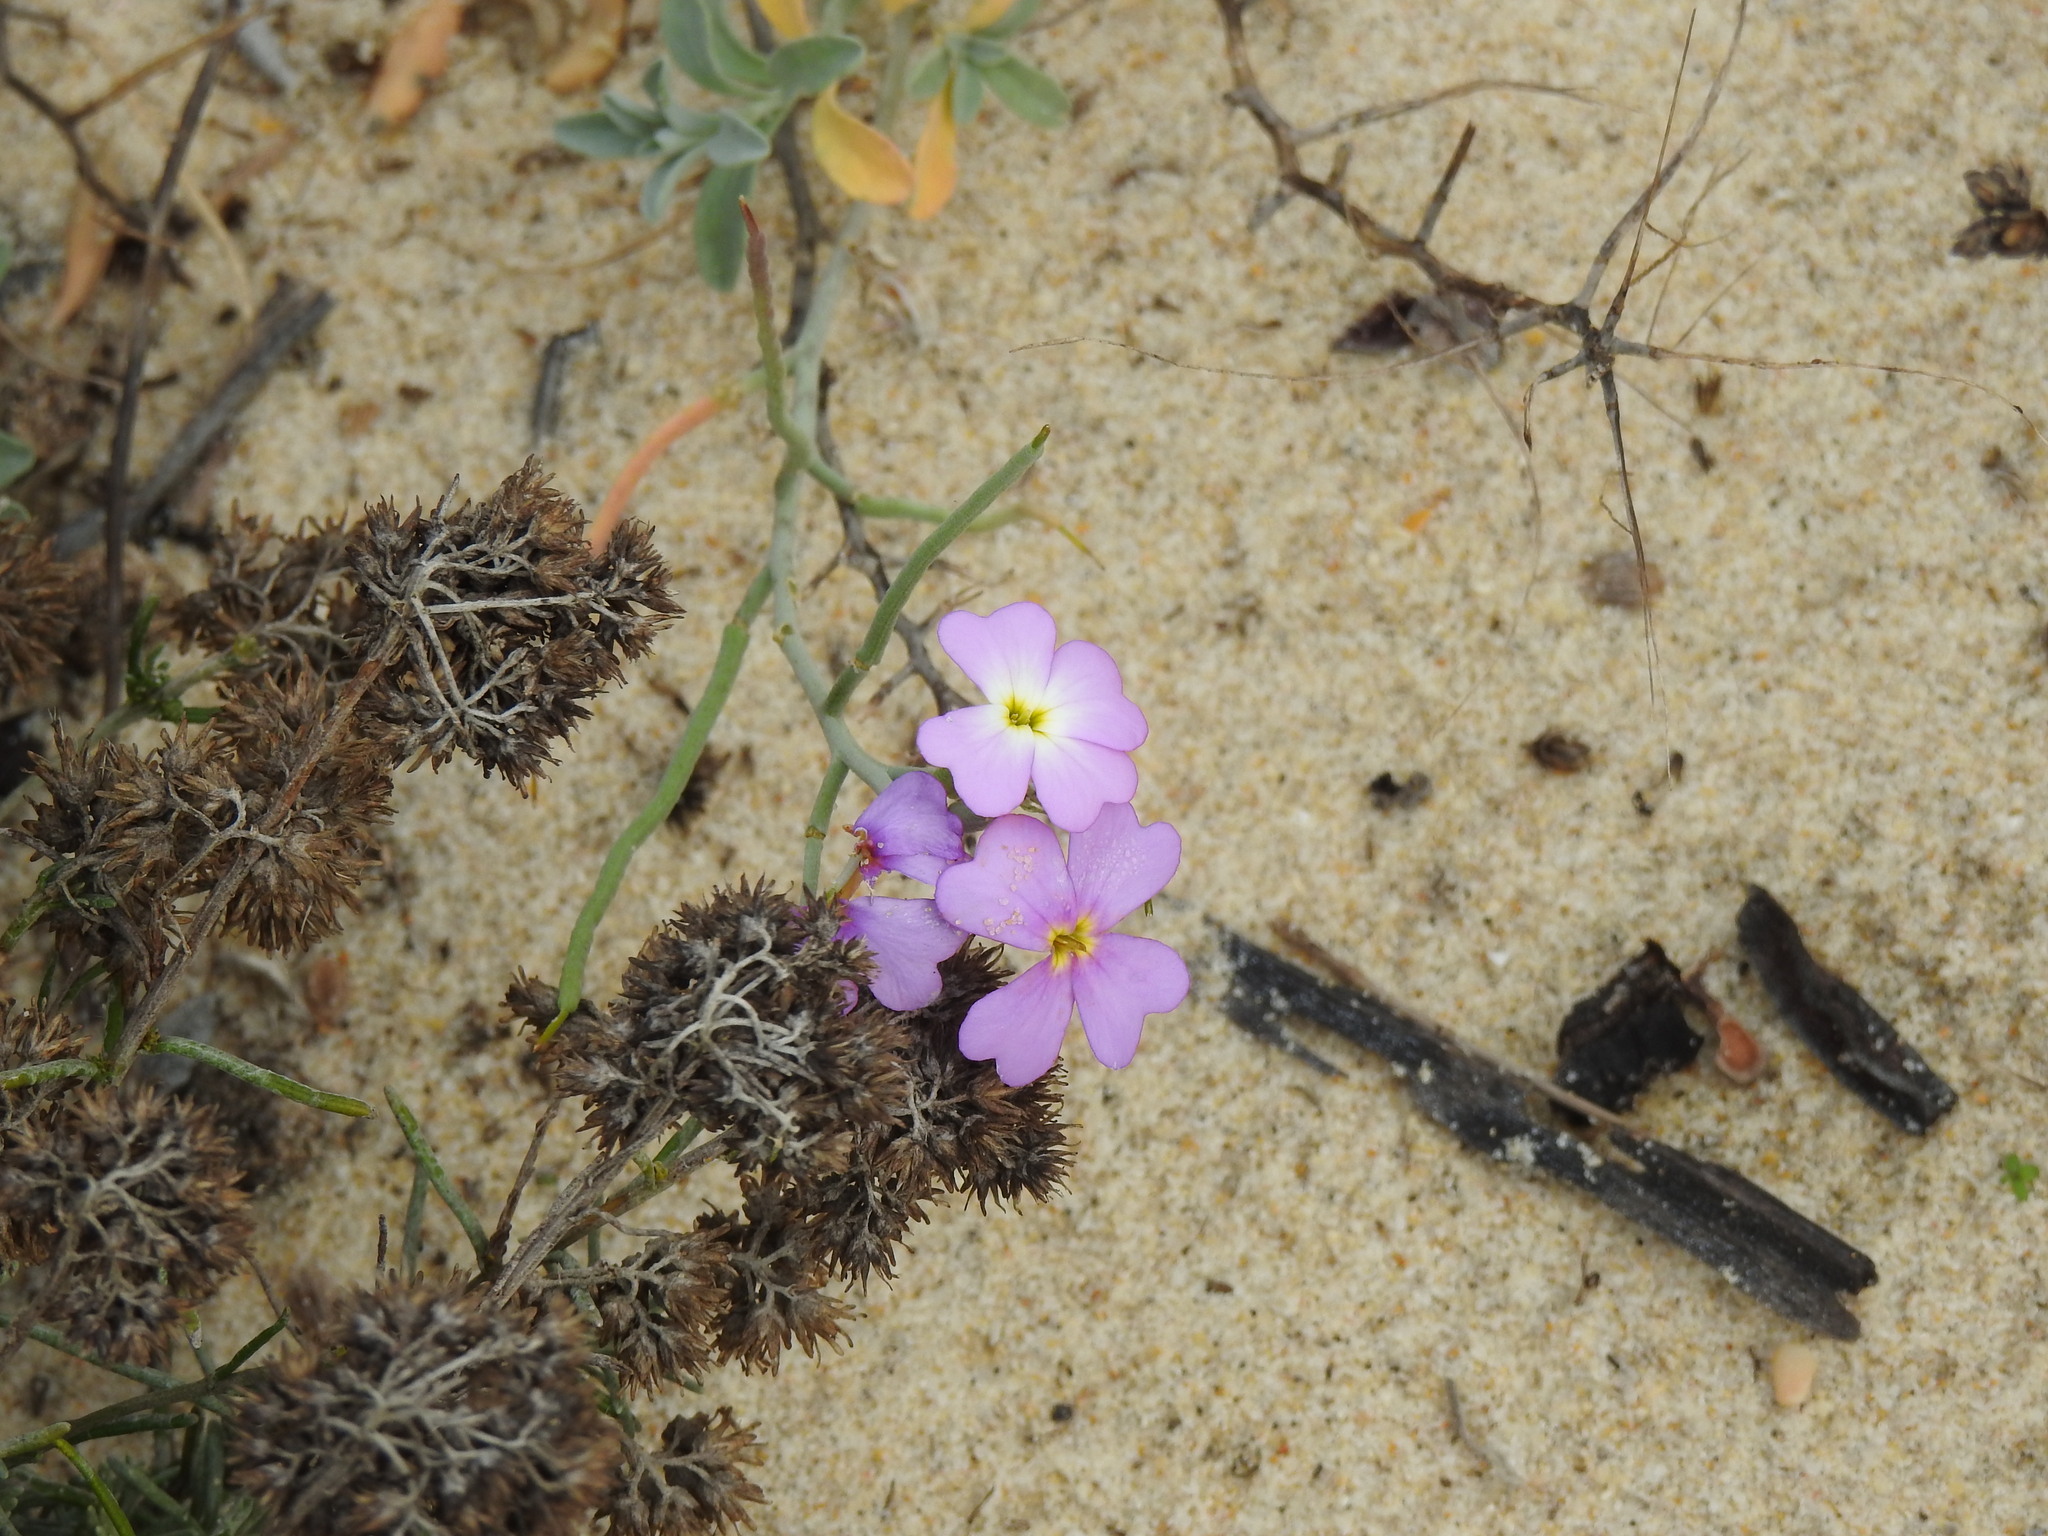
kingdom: Plantae
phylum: Tracheophyta
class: Magnoliopsida
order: Brassicales
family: Brassicaceae
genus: Marcuskochia
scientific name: Marcuskochia littorea
